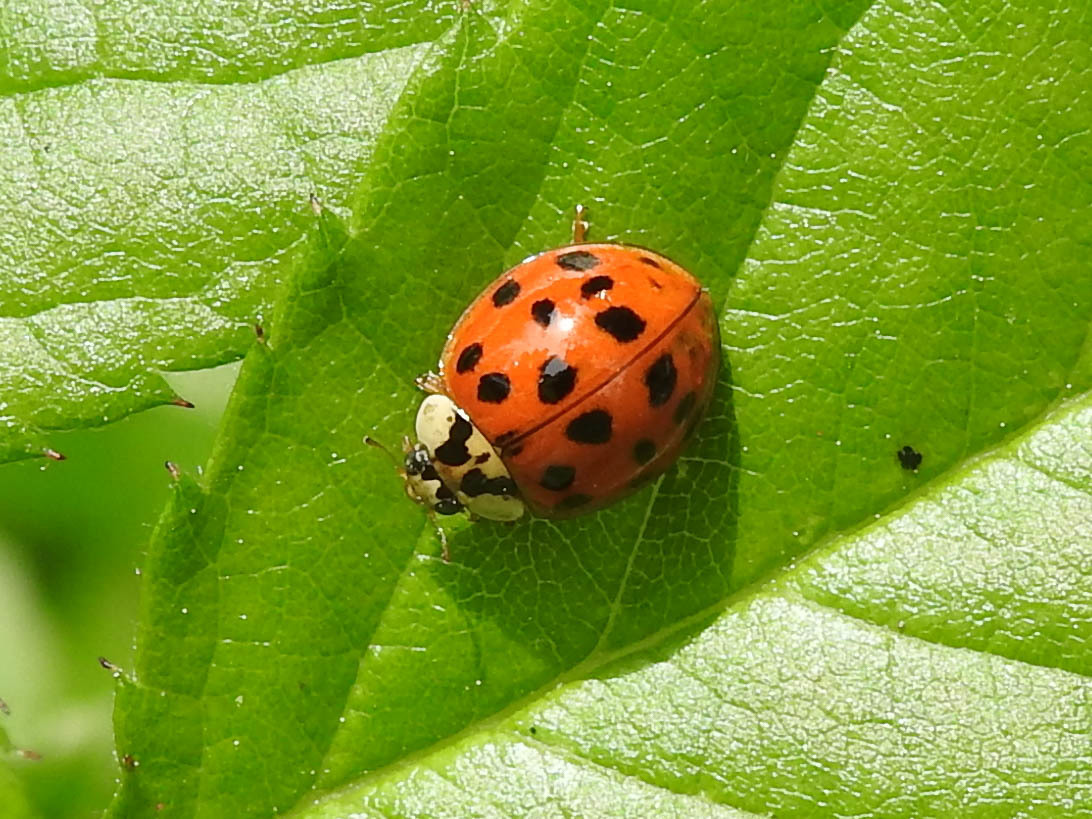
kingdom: Animalia
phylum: Arthropoda
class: Insecta
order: Coleoptera
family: Coccinellidae
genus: Harmonia
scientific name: Harmonia axyridis
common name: Harlequin ladybird
